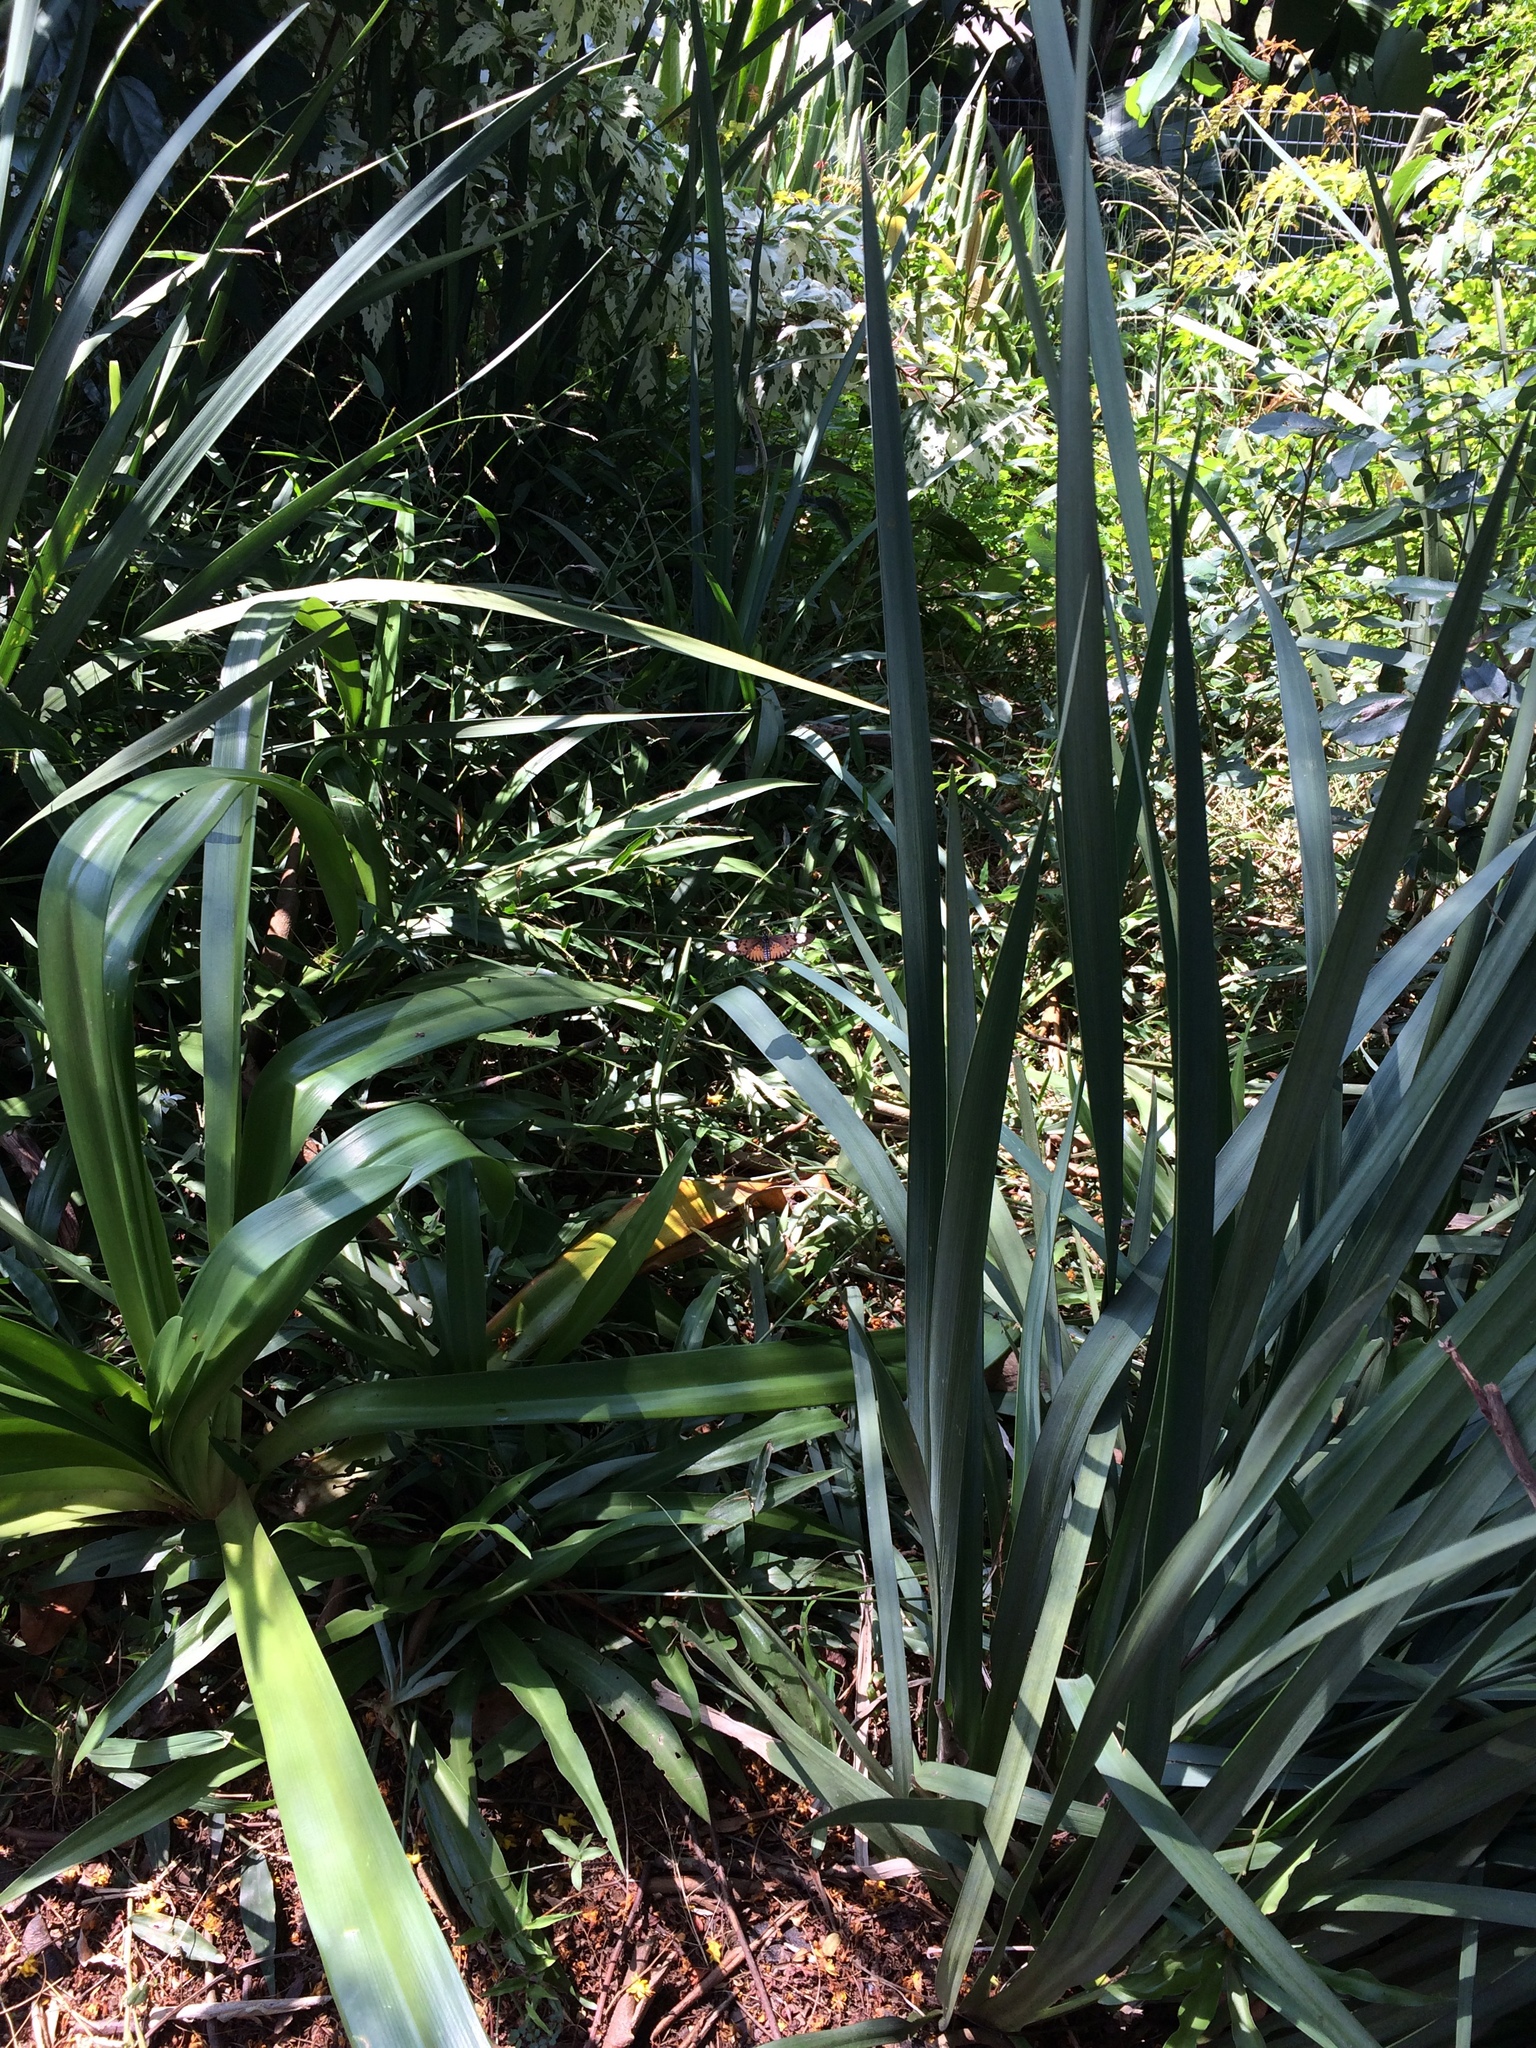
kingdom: Animalia
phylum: Arthropoda
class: Insecta
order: Lepidoptera
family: Nymphalidae
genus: Rubraea
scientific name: Rubraea
